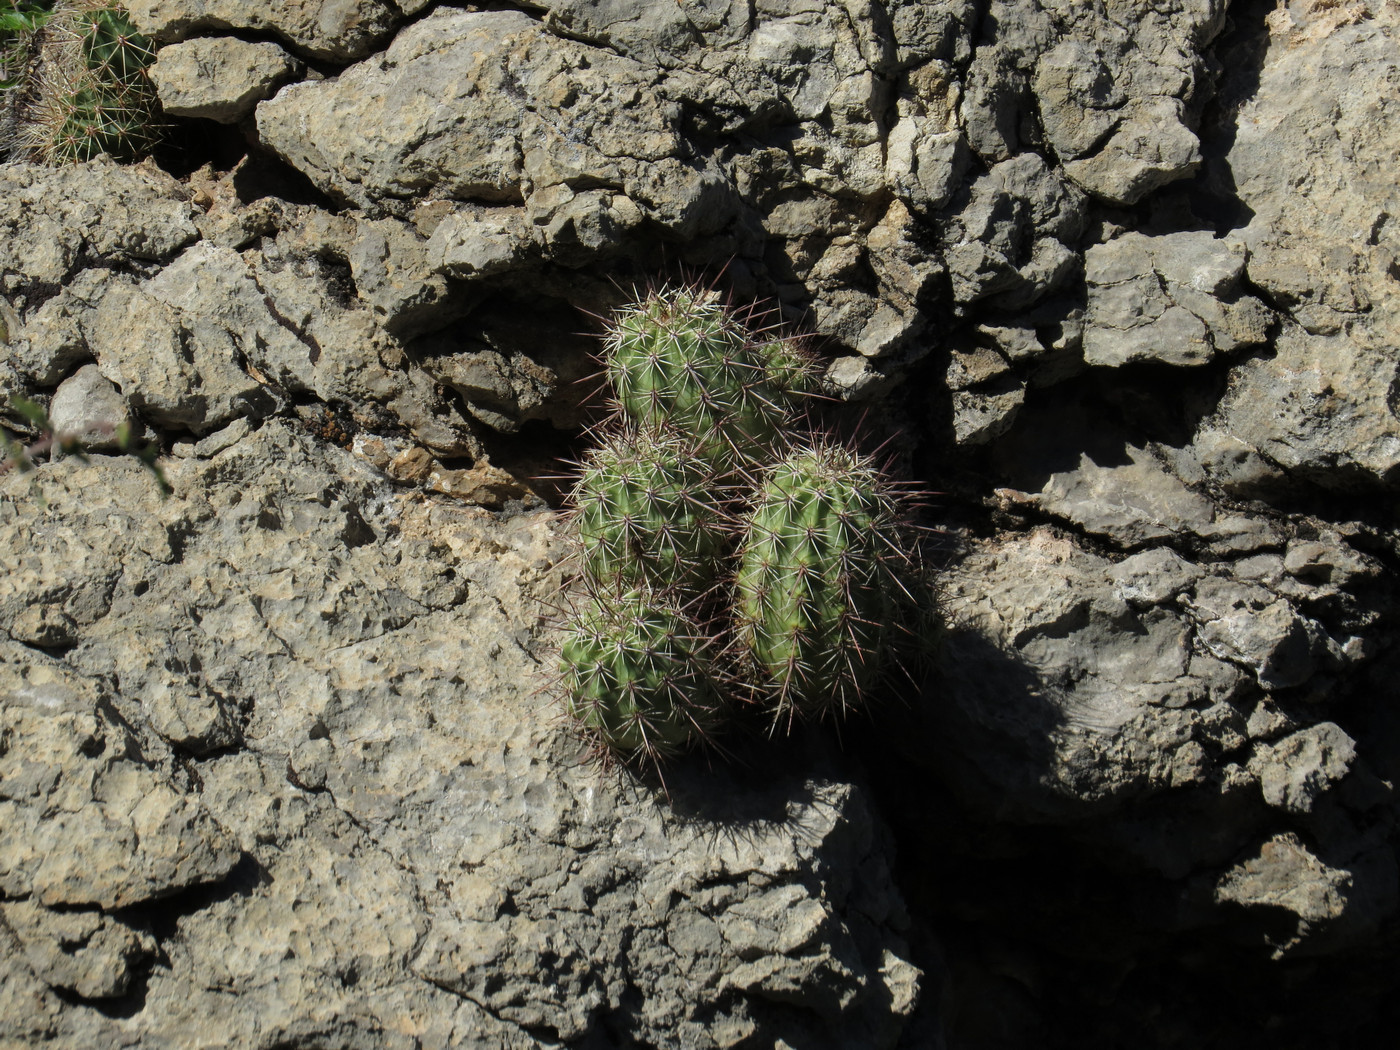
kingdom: Plantae
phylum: Tracheophyta
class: Magnoliopsida
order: Caryophyllales
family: Cactaceae
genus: Echinocereus
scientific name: Echinocereus coccineus
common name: Scarlet hedgehog cactus
